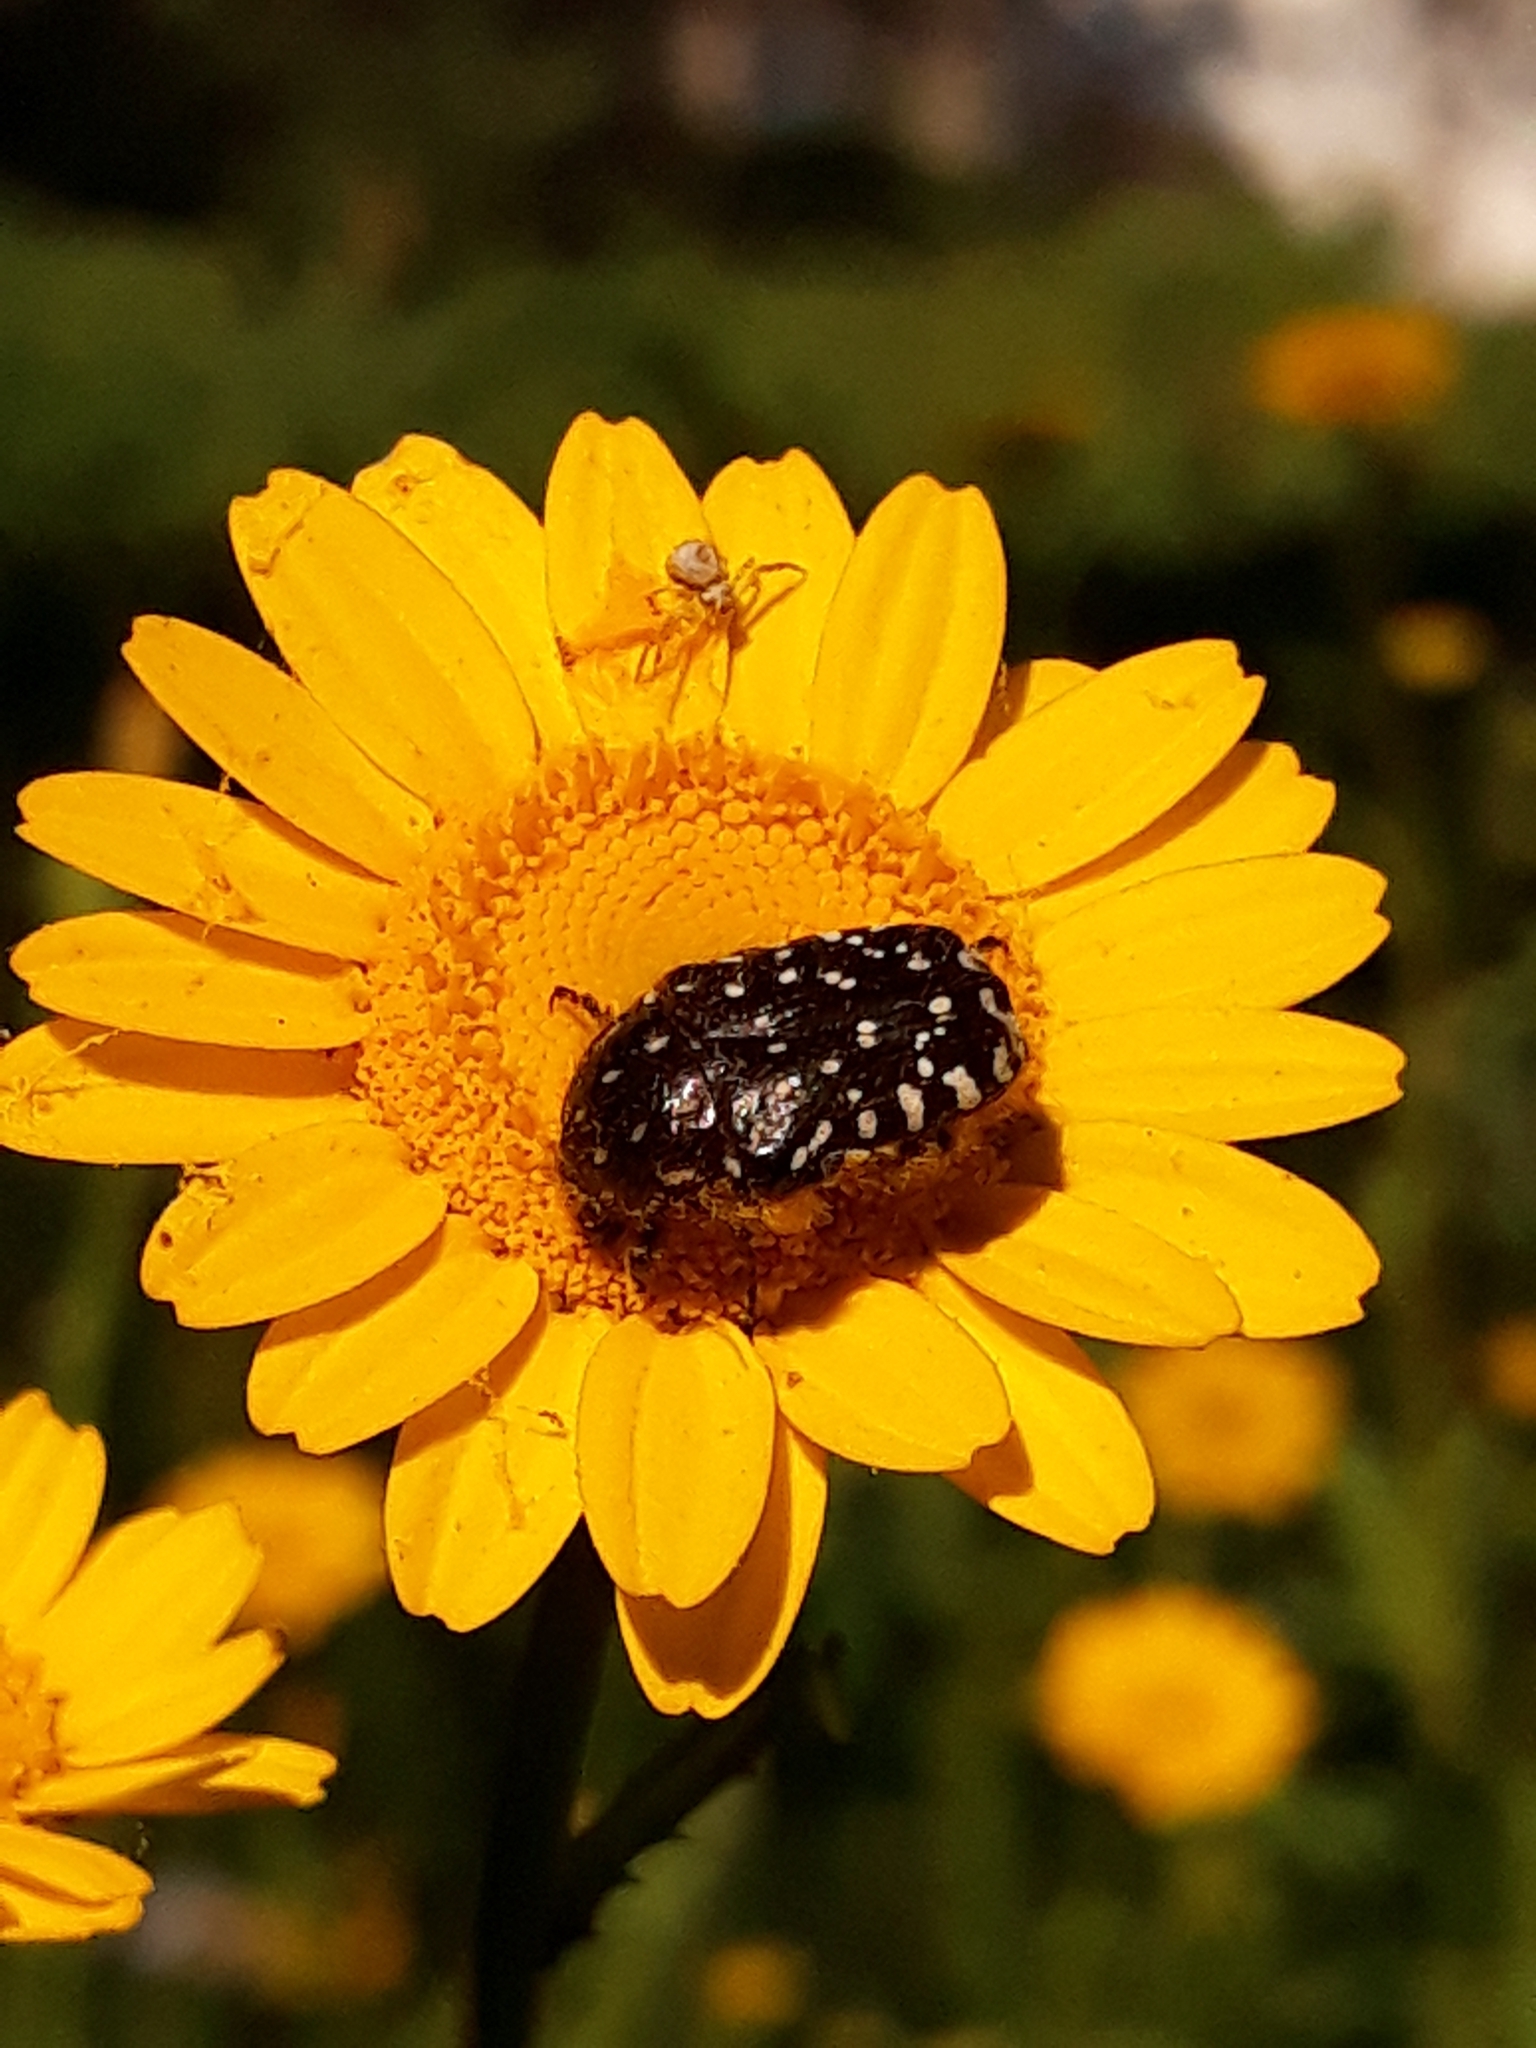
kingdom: Animalia
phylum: Arthropoda
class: Insecta
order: Coleoptera
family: Scarabaeidae
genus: Oxythyrea
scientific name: Oxythyrea funesta
